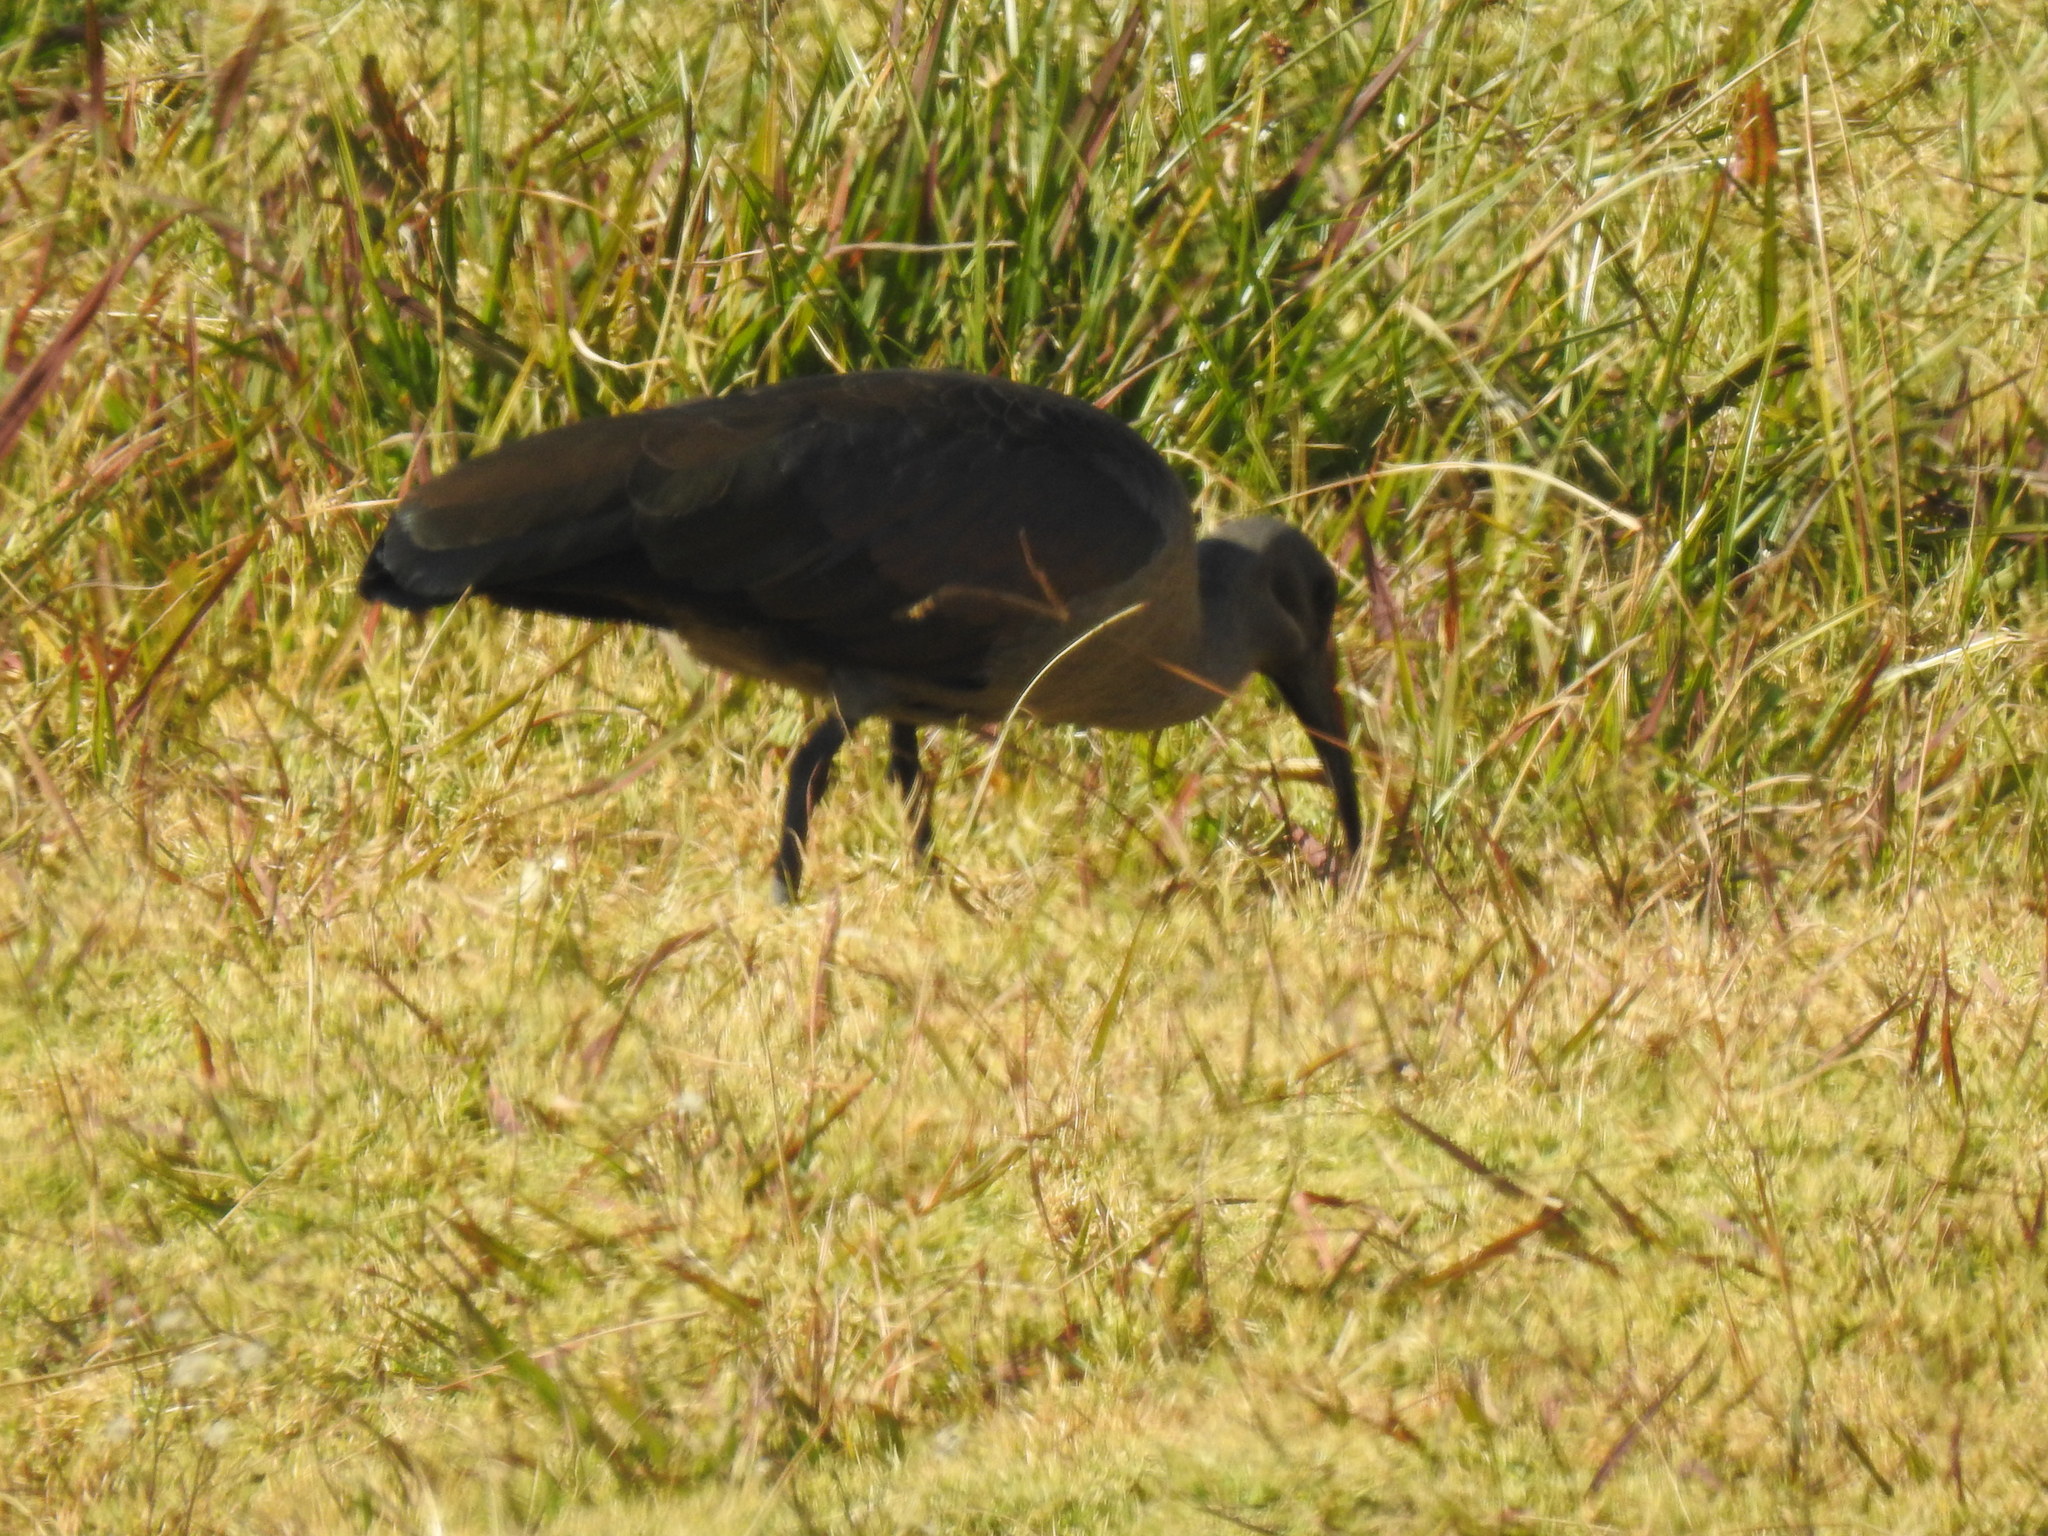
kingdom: Animalia
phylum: Chordata
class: Aves
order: Pelecaniformes
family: Threskiornithidae
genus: Bostrychia
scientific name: Bostrychia hagedash
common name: Hadada ibis
